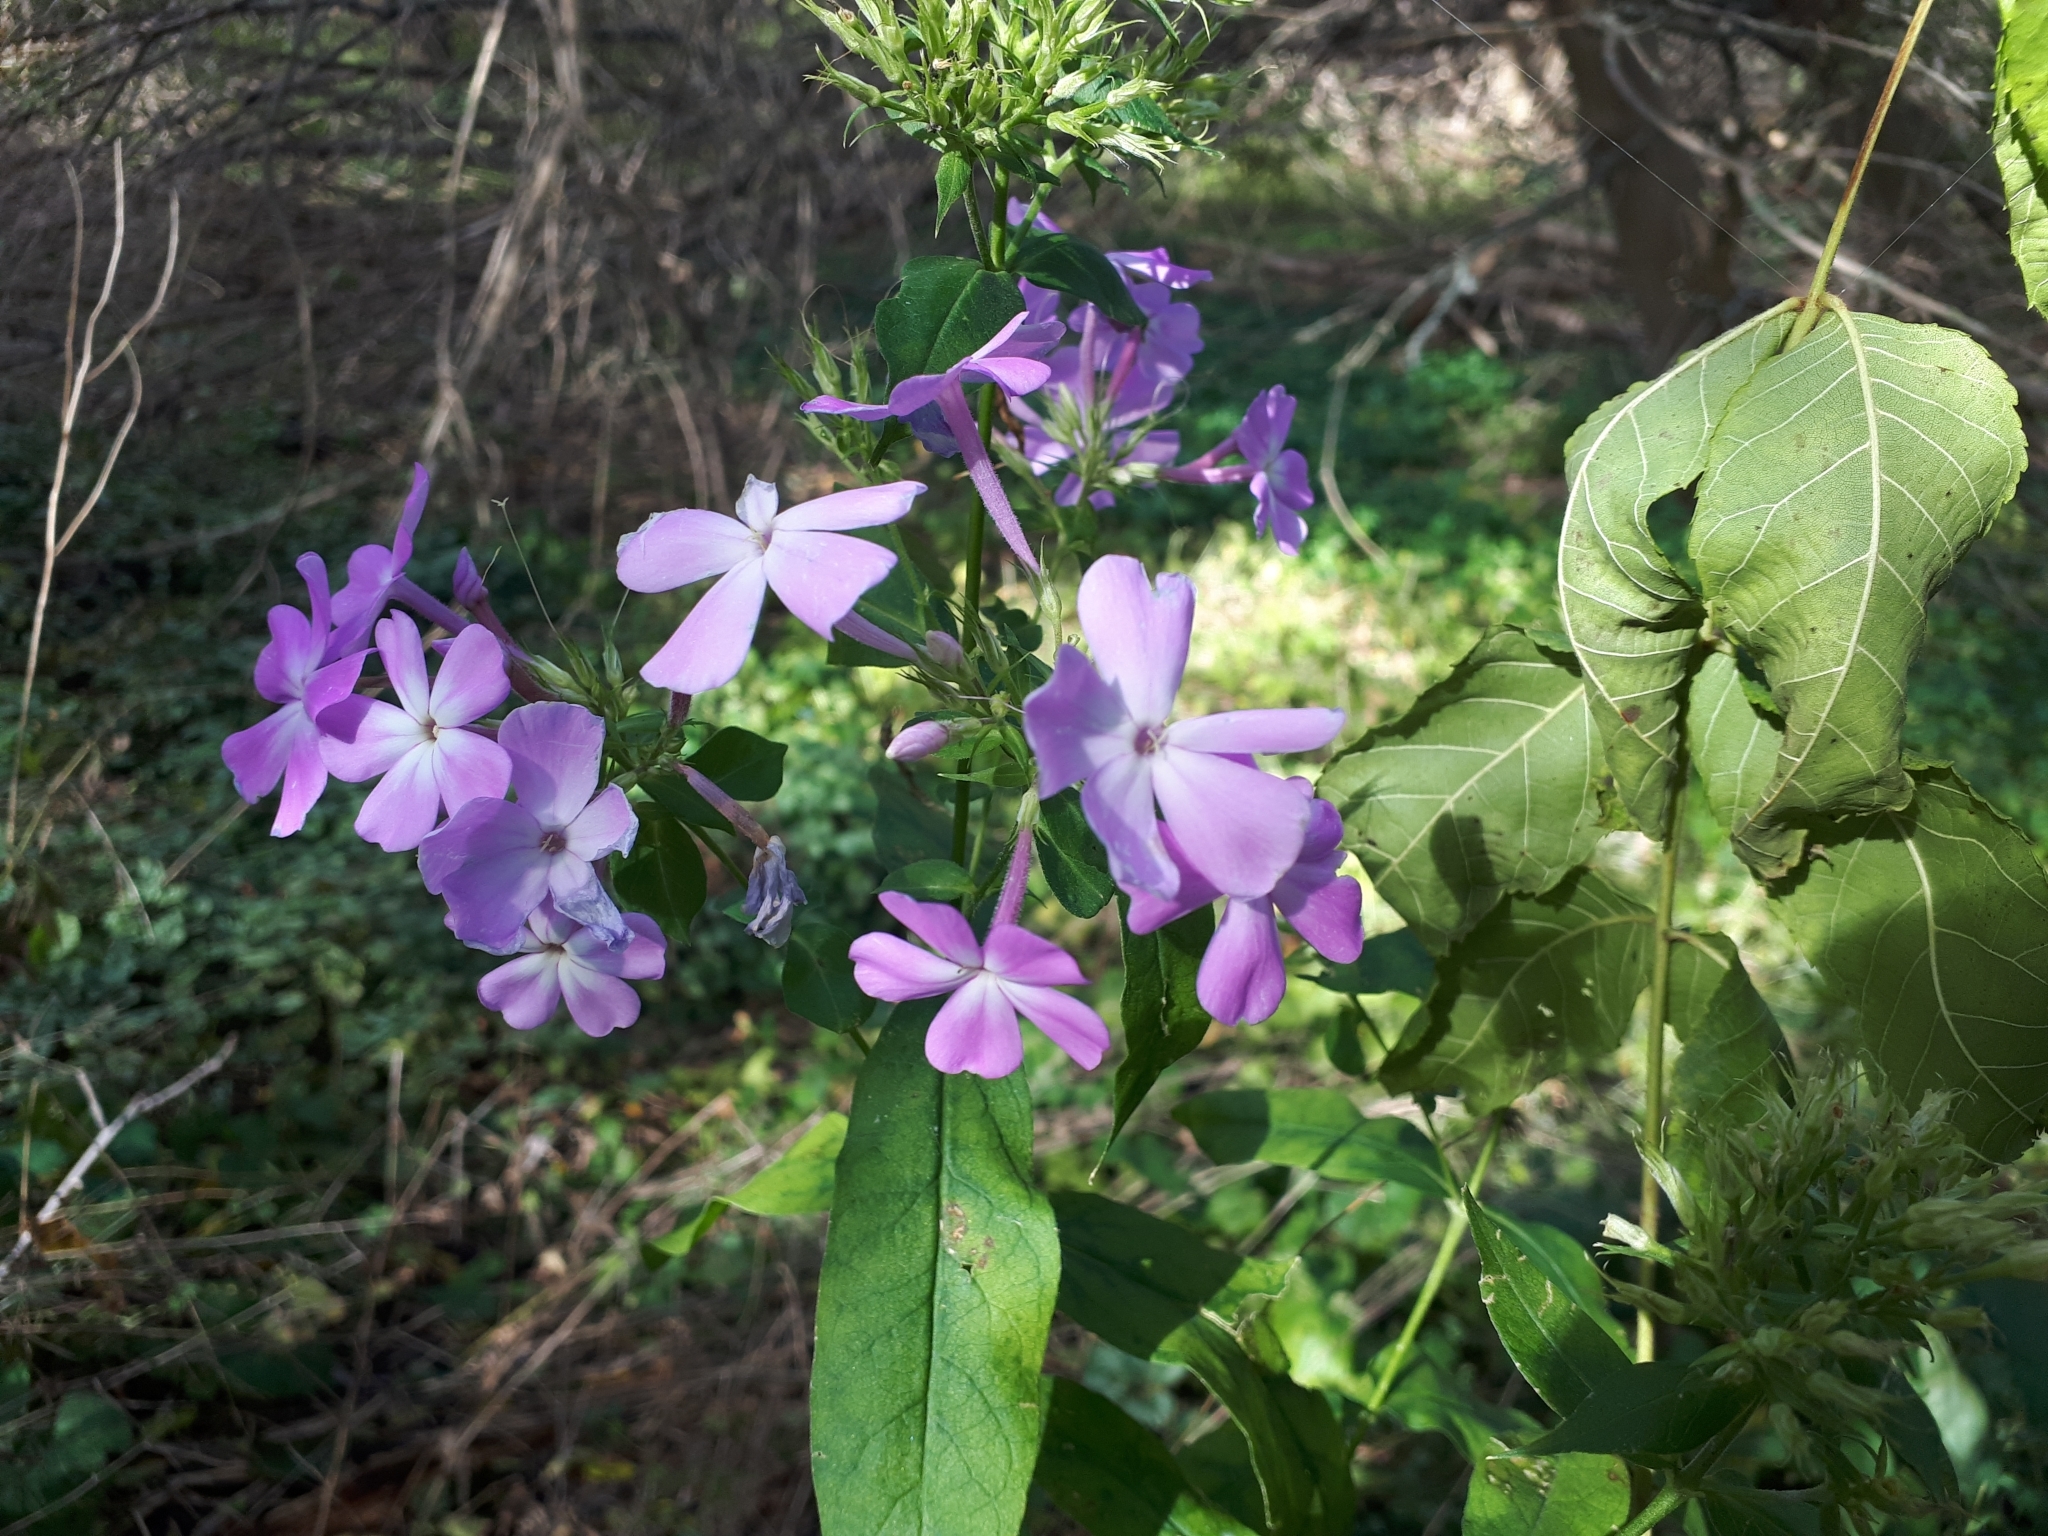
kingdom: Plantae
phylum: Tracheophyta
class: Magnoliopsida
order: Ericales
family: Polemoniaceae
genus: Phlox
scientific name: Phlox paniculata
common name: Fall phlox
